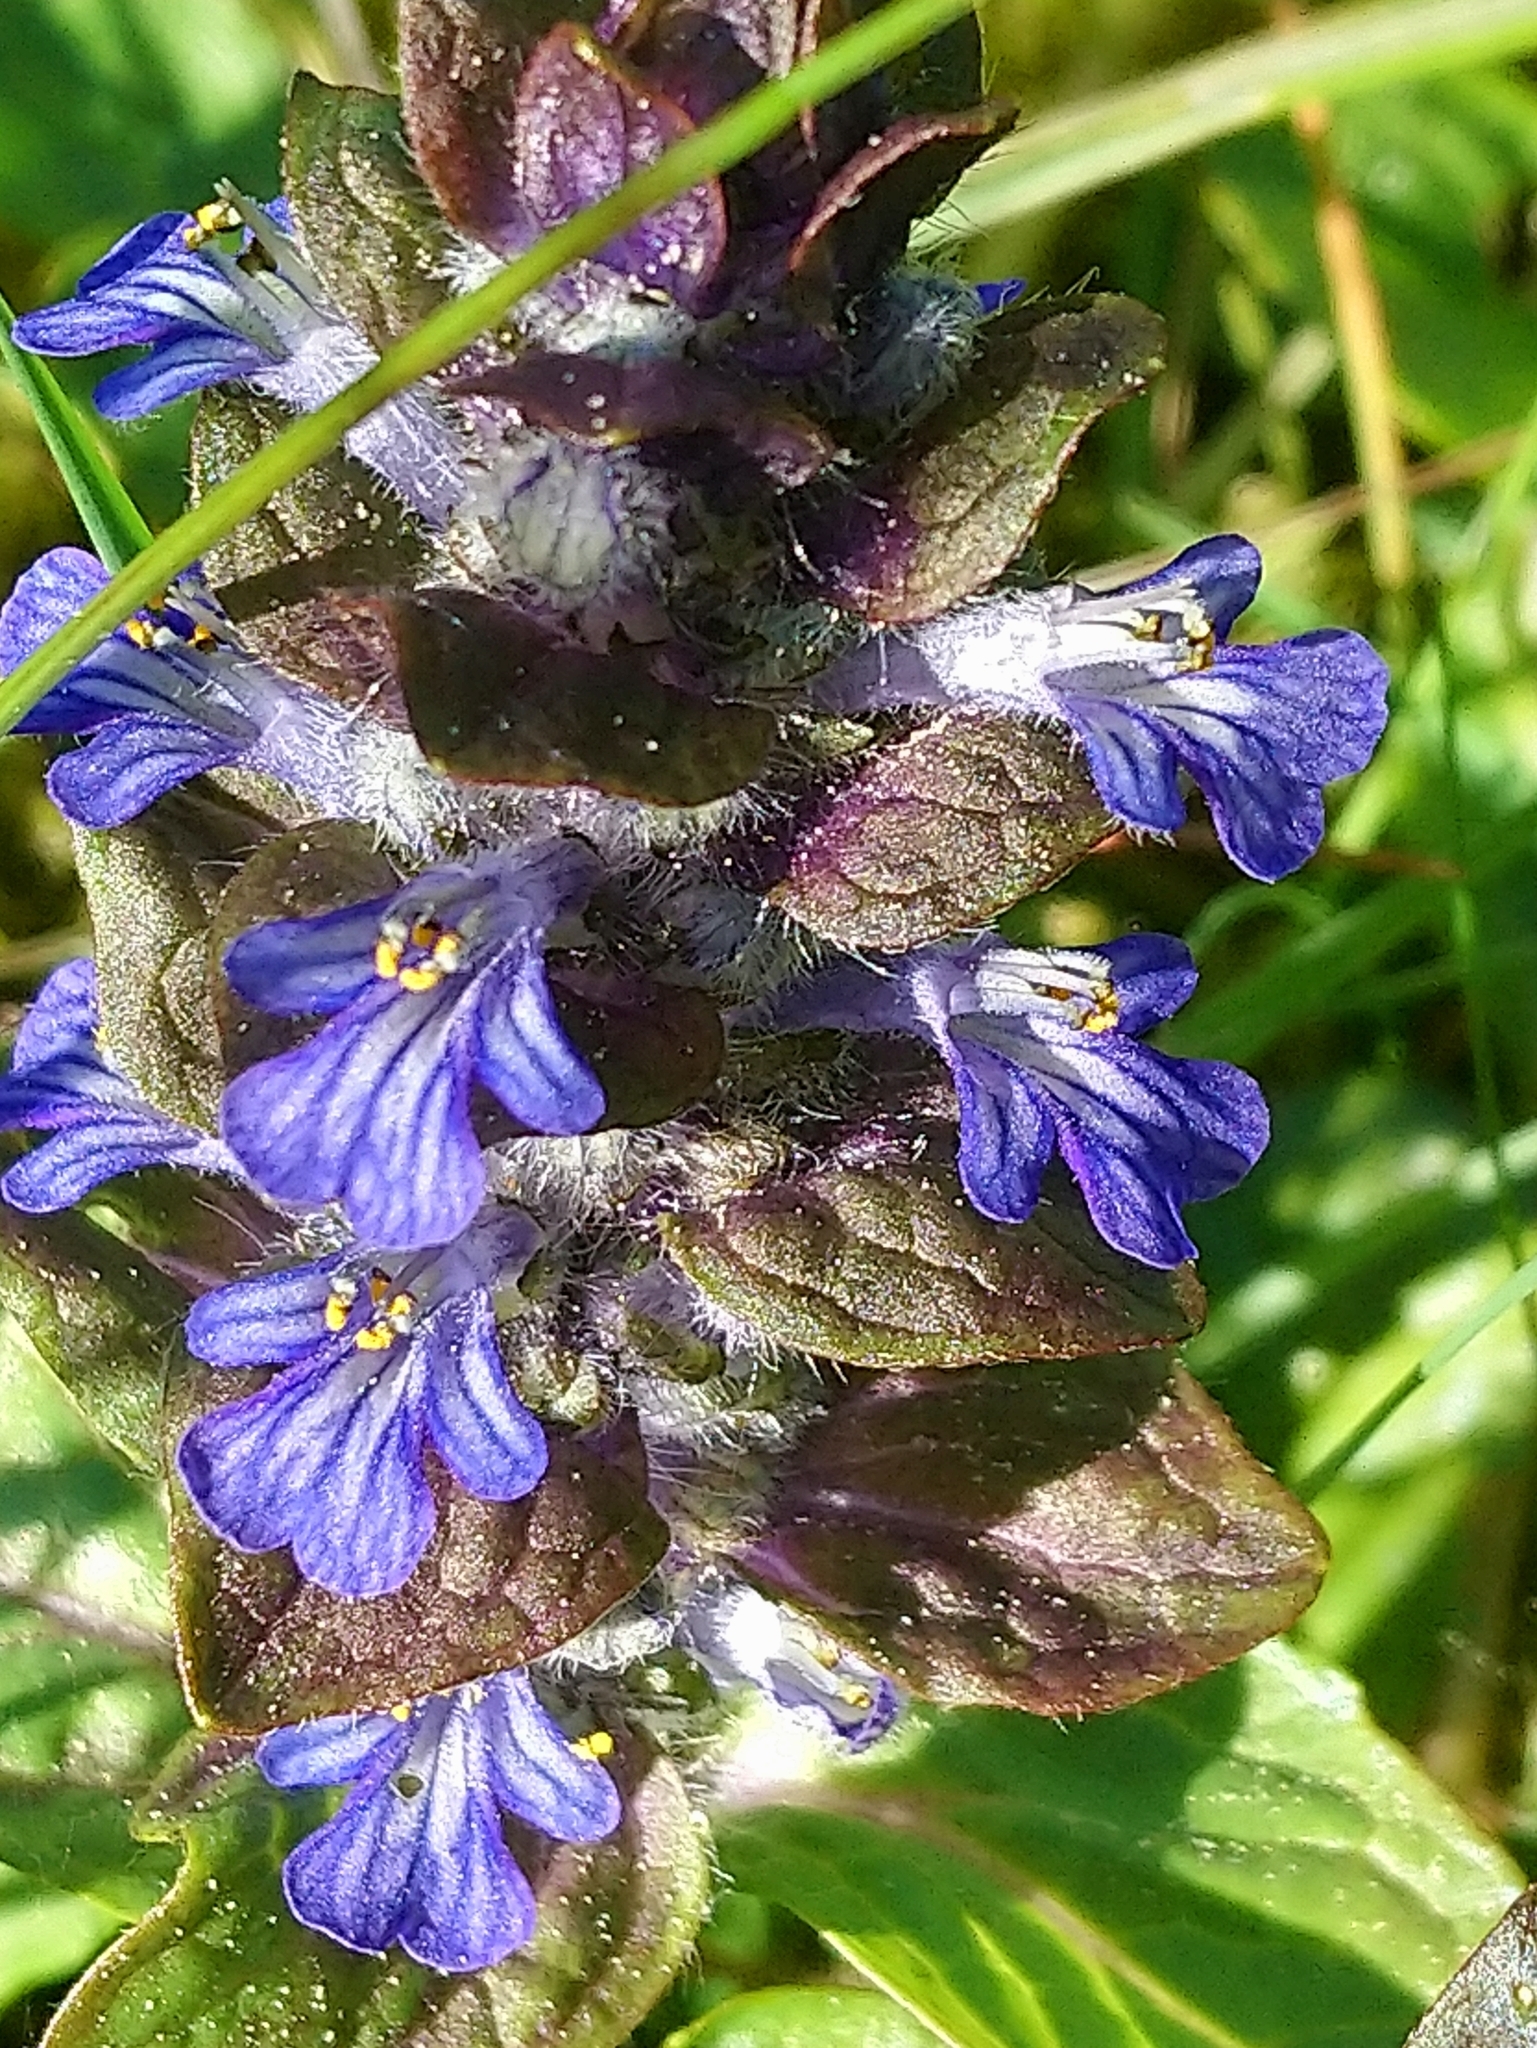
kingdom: Plantae
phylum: Tracheophyta
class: Magnoliopsida
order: Lamiales
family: Lamiaceae
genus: Ajuga
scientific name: Ajuga reptans
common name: Bugle
